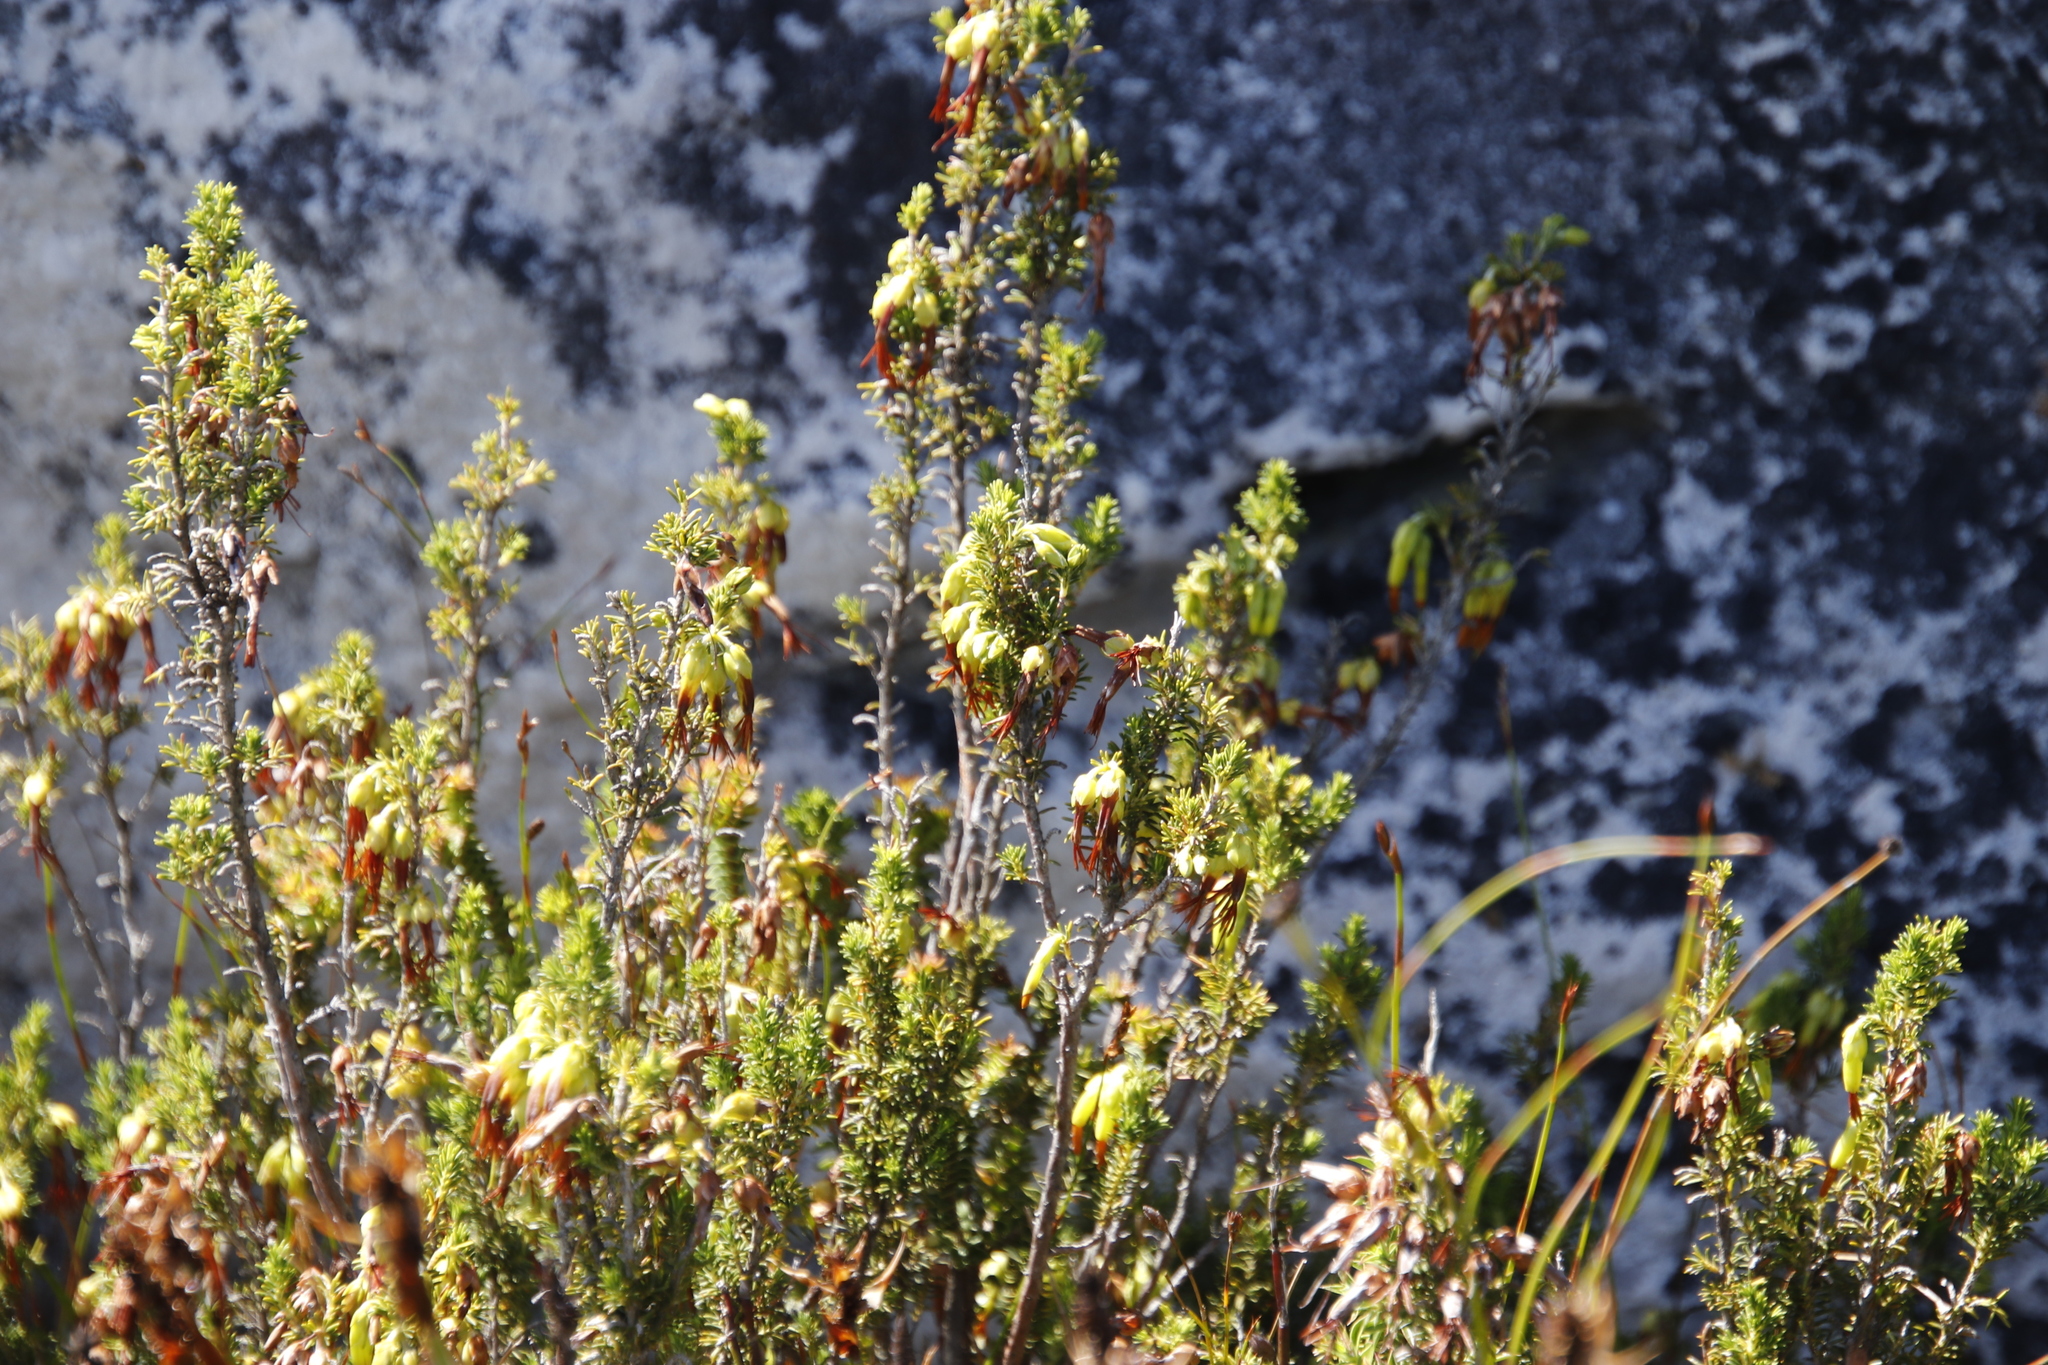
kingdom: Plantae
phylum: Tracheophyta
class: Magnoliopsida
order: Ericales
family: Ericaceae
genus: Erica
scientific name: Erica coccinea
